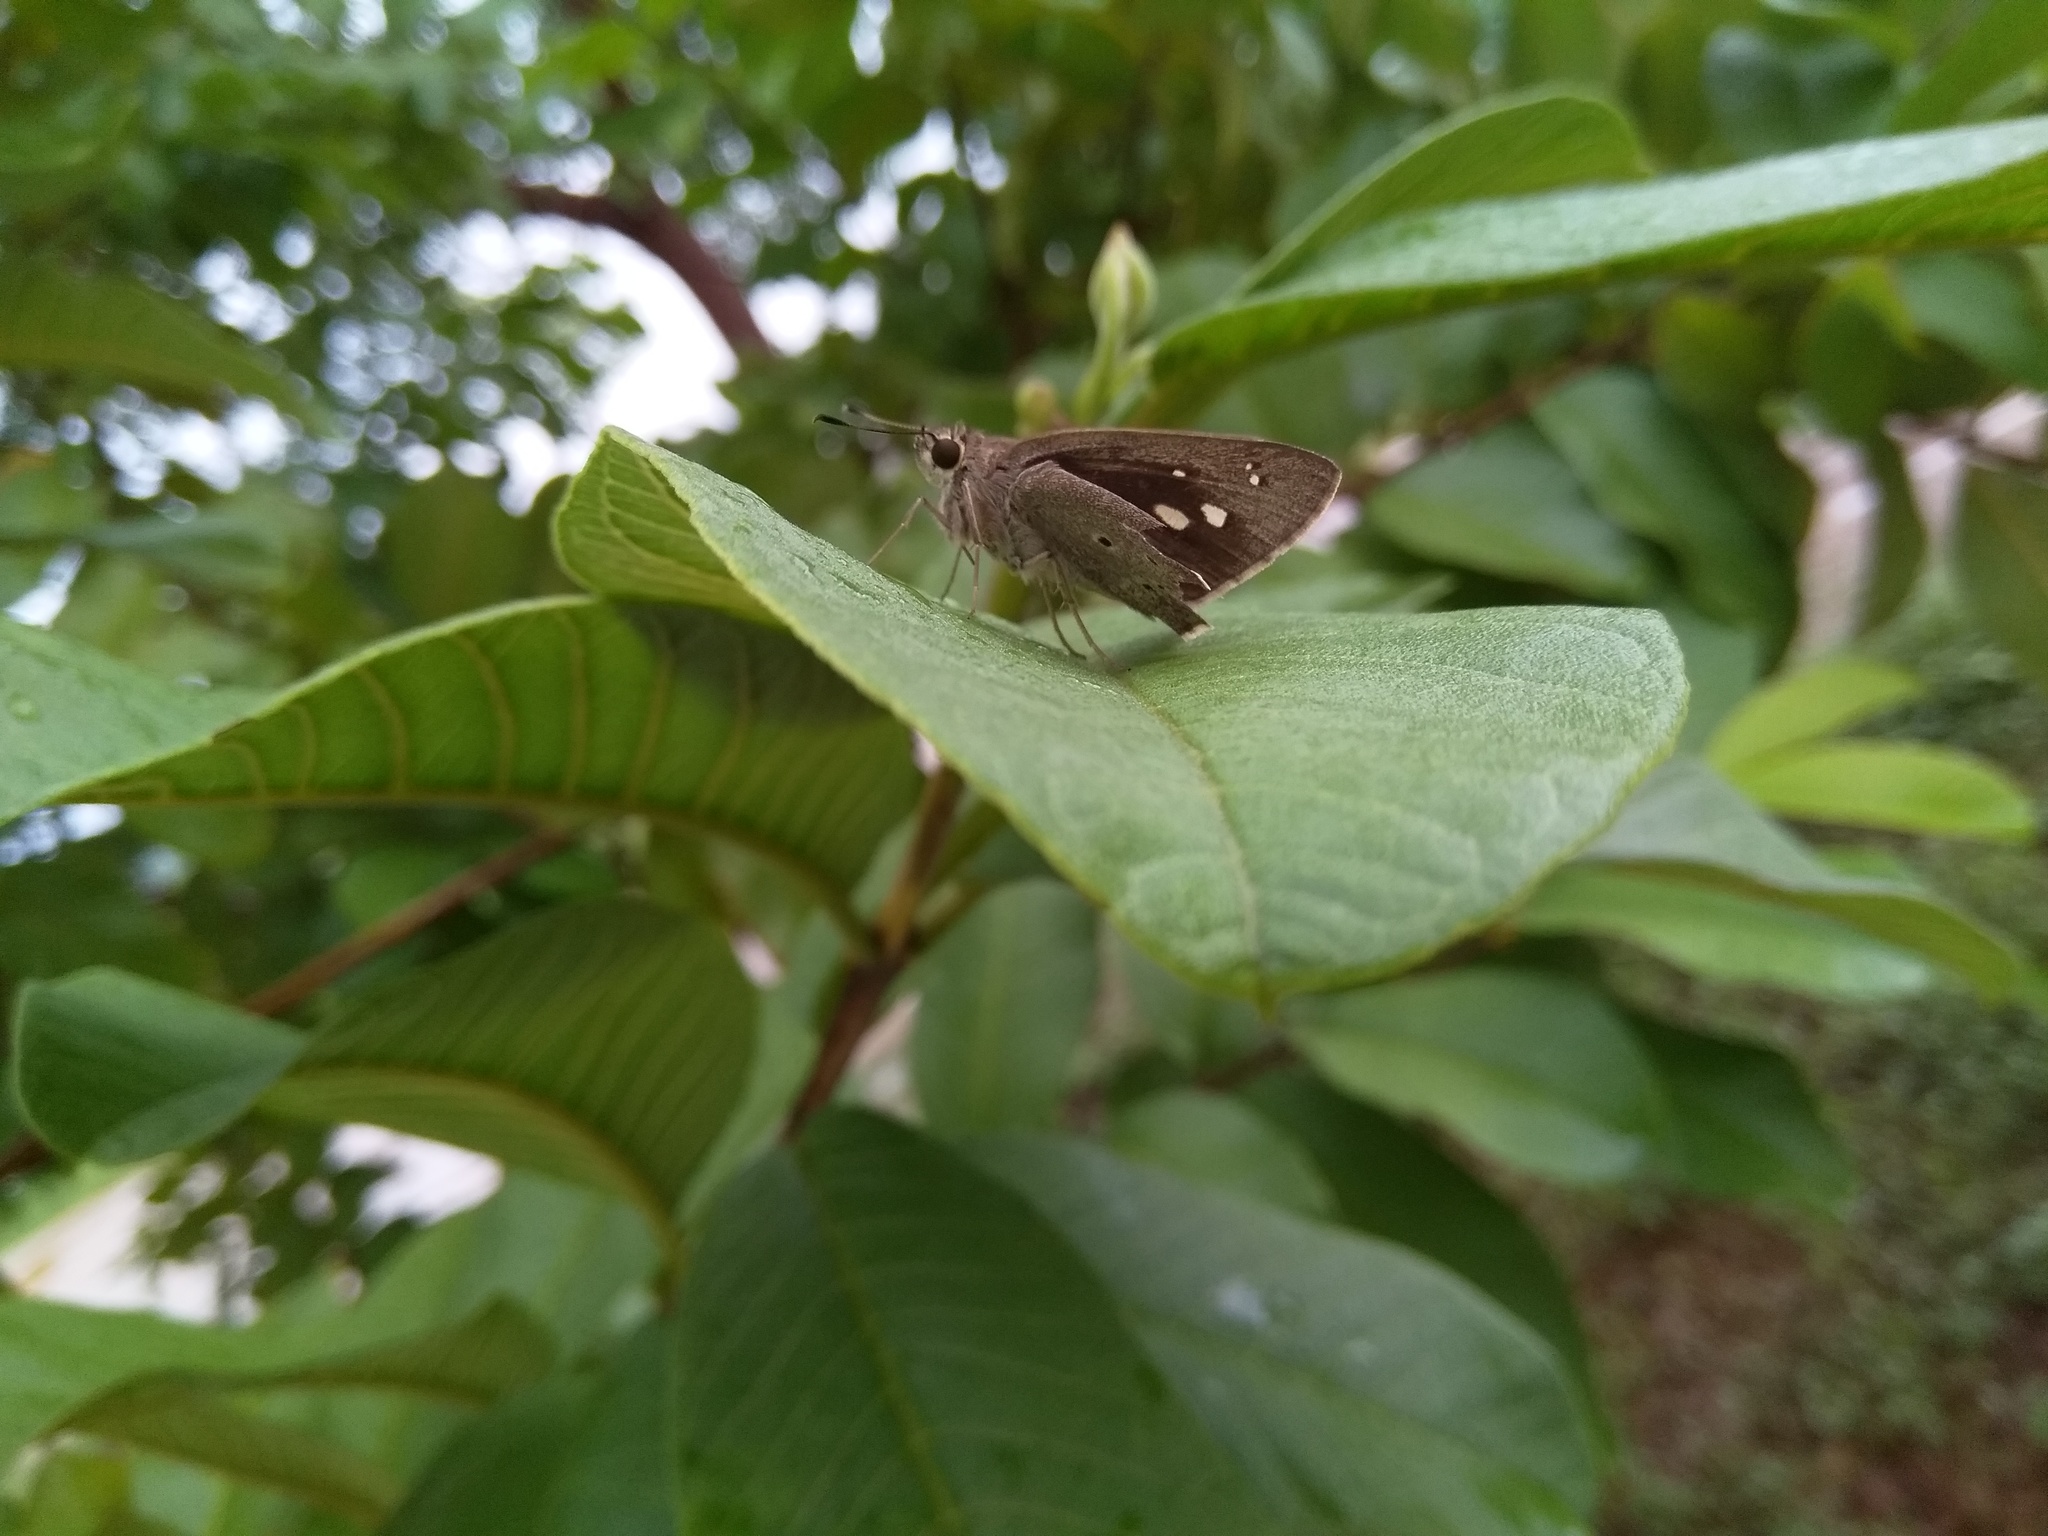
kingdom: Animalia
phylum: Arthropoda
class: Insecta
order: Lepidoptera
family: Hesperiidae
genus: Suastus
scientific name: Suastus gremius
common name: Indian palm bob
